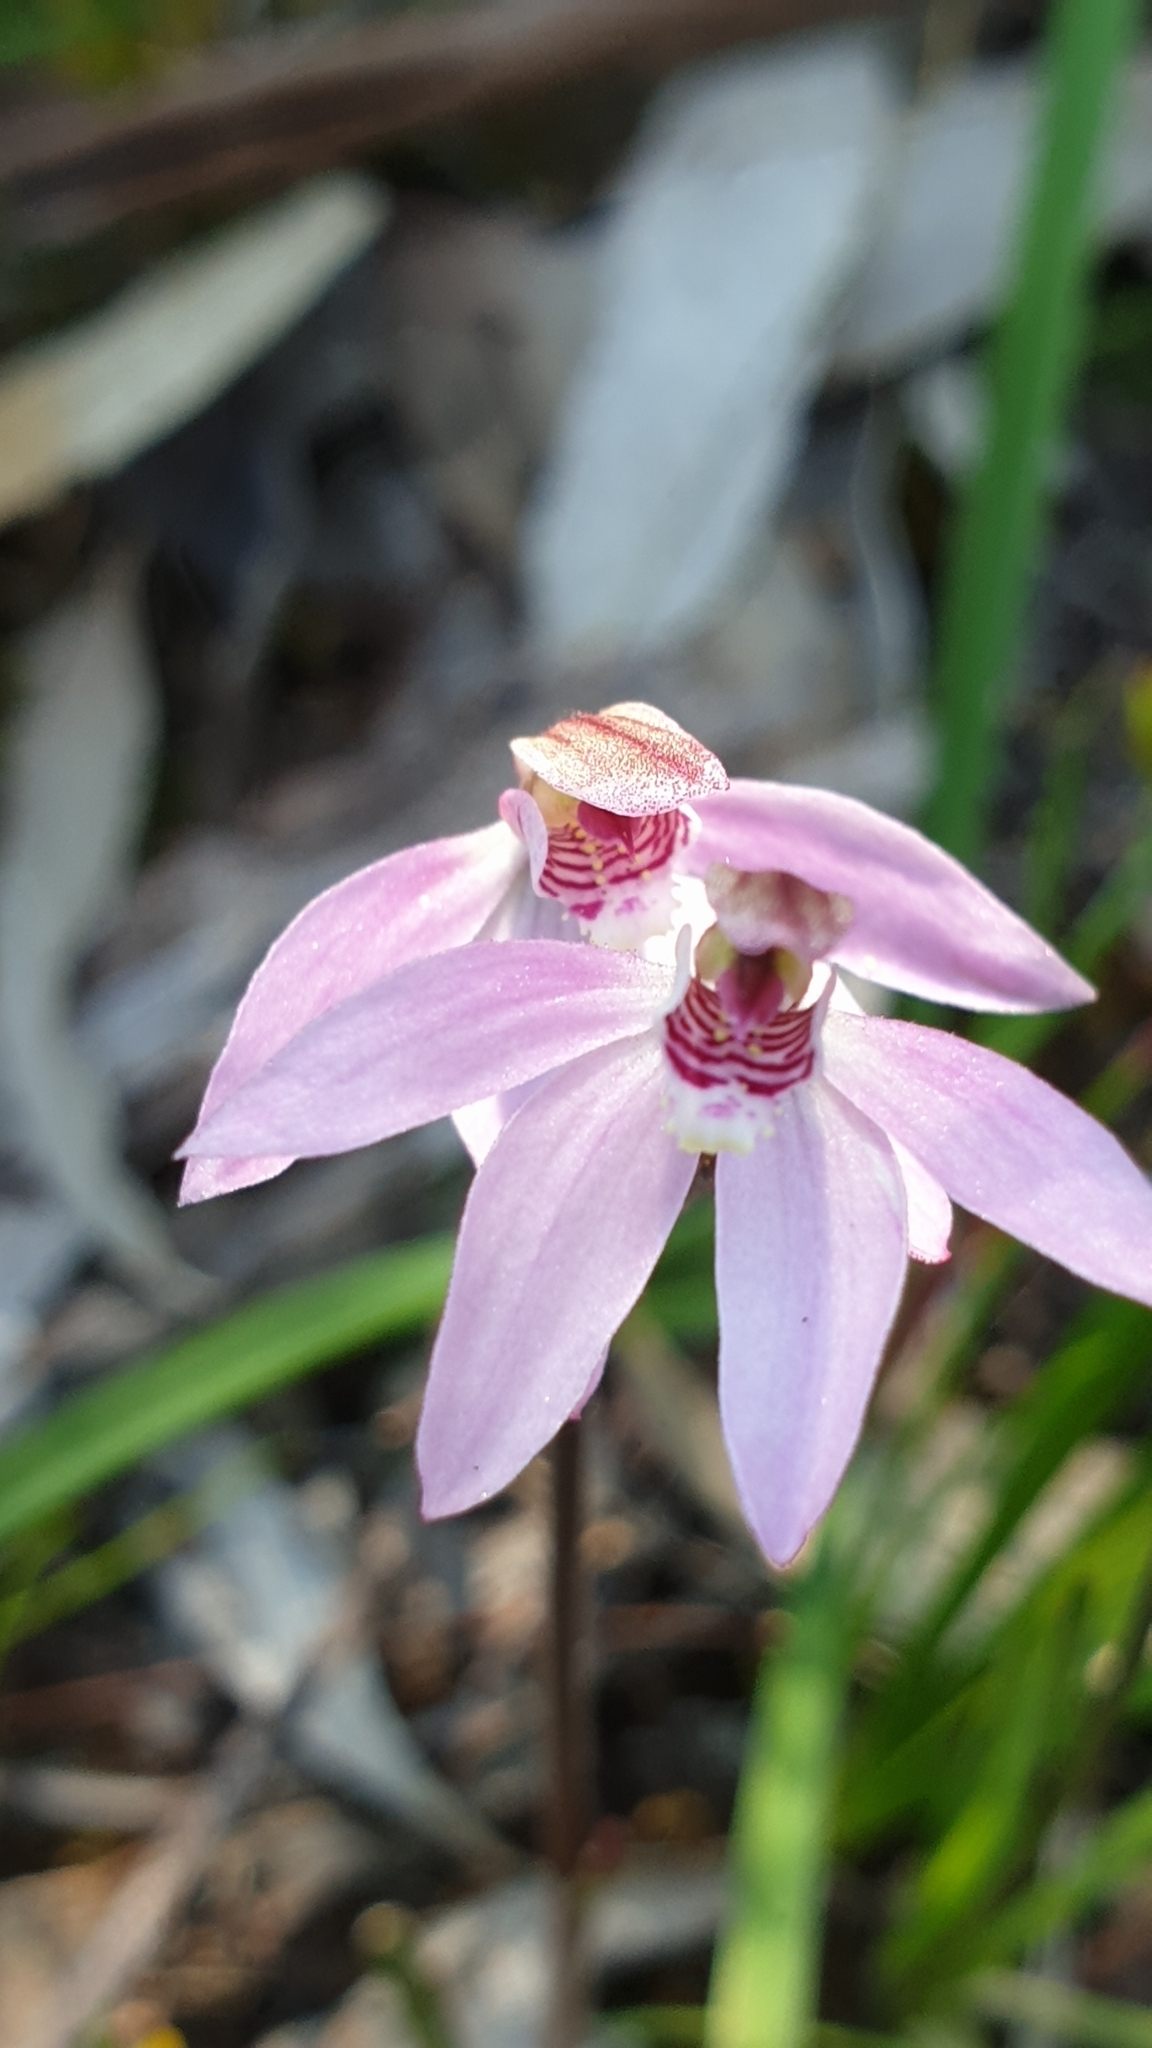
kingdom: Plantae
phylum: Tracheophyta
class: Liliopsida
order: Asparagales
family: Orchidaceae
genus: Caladenia
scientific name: Caladenia carnea
